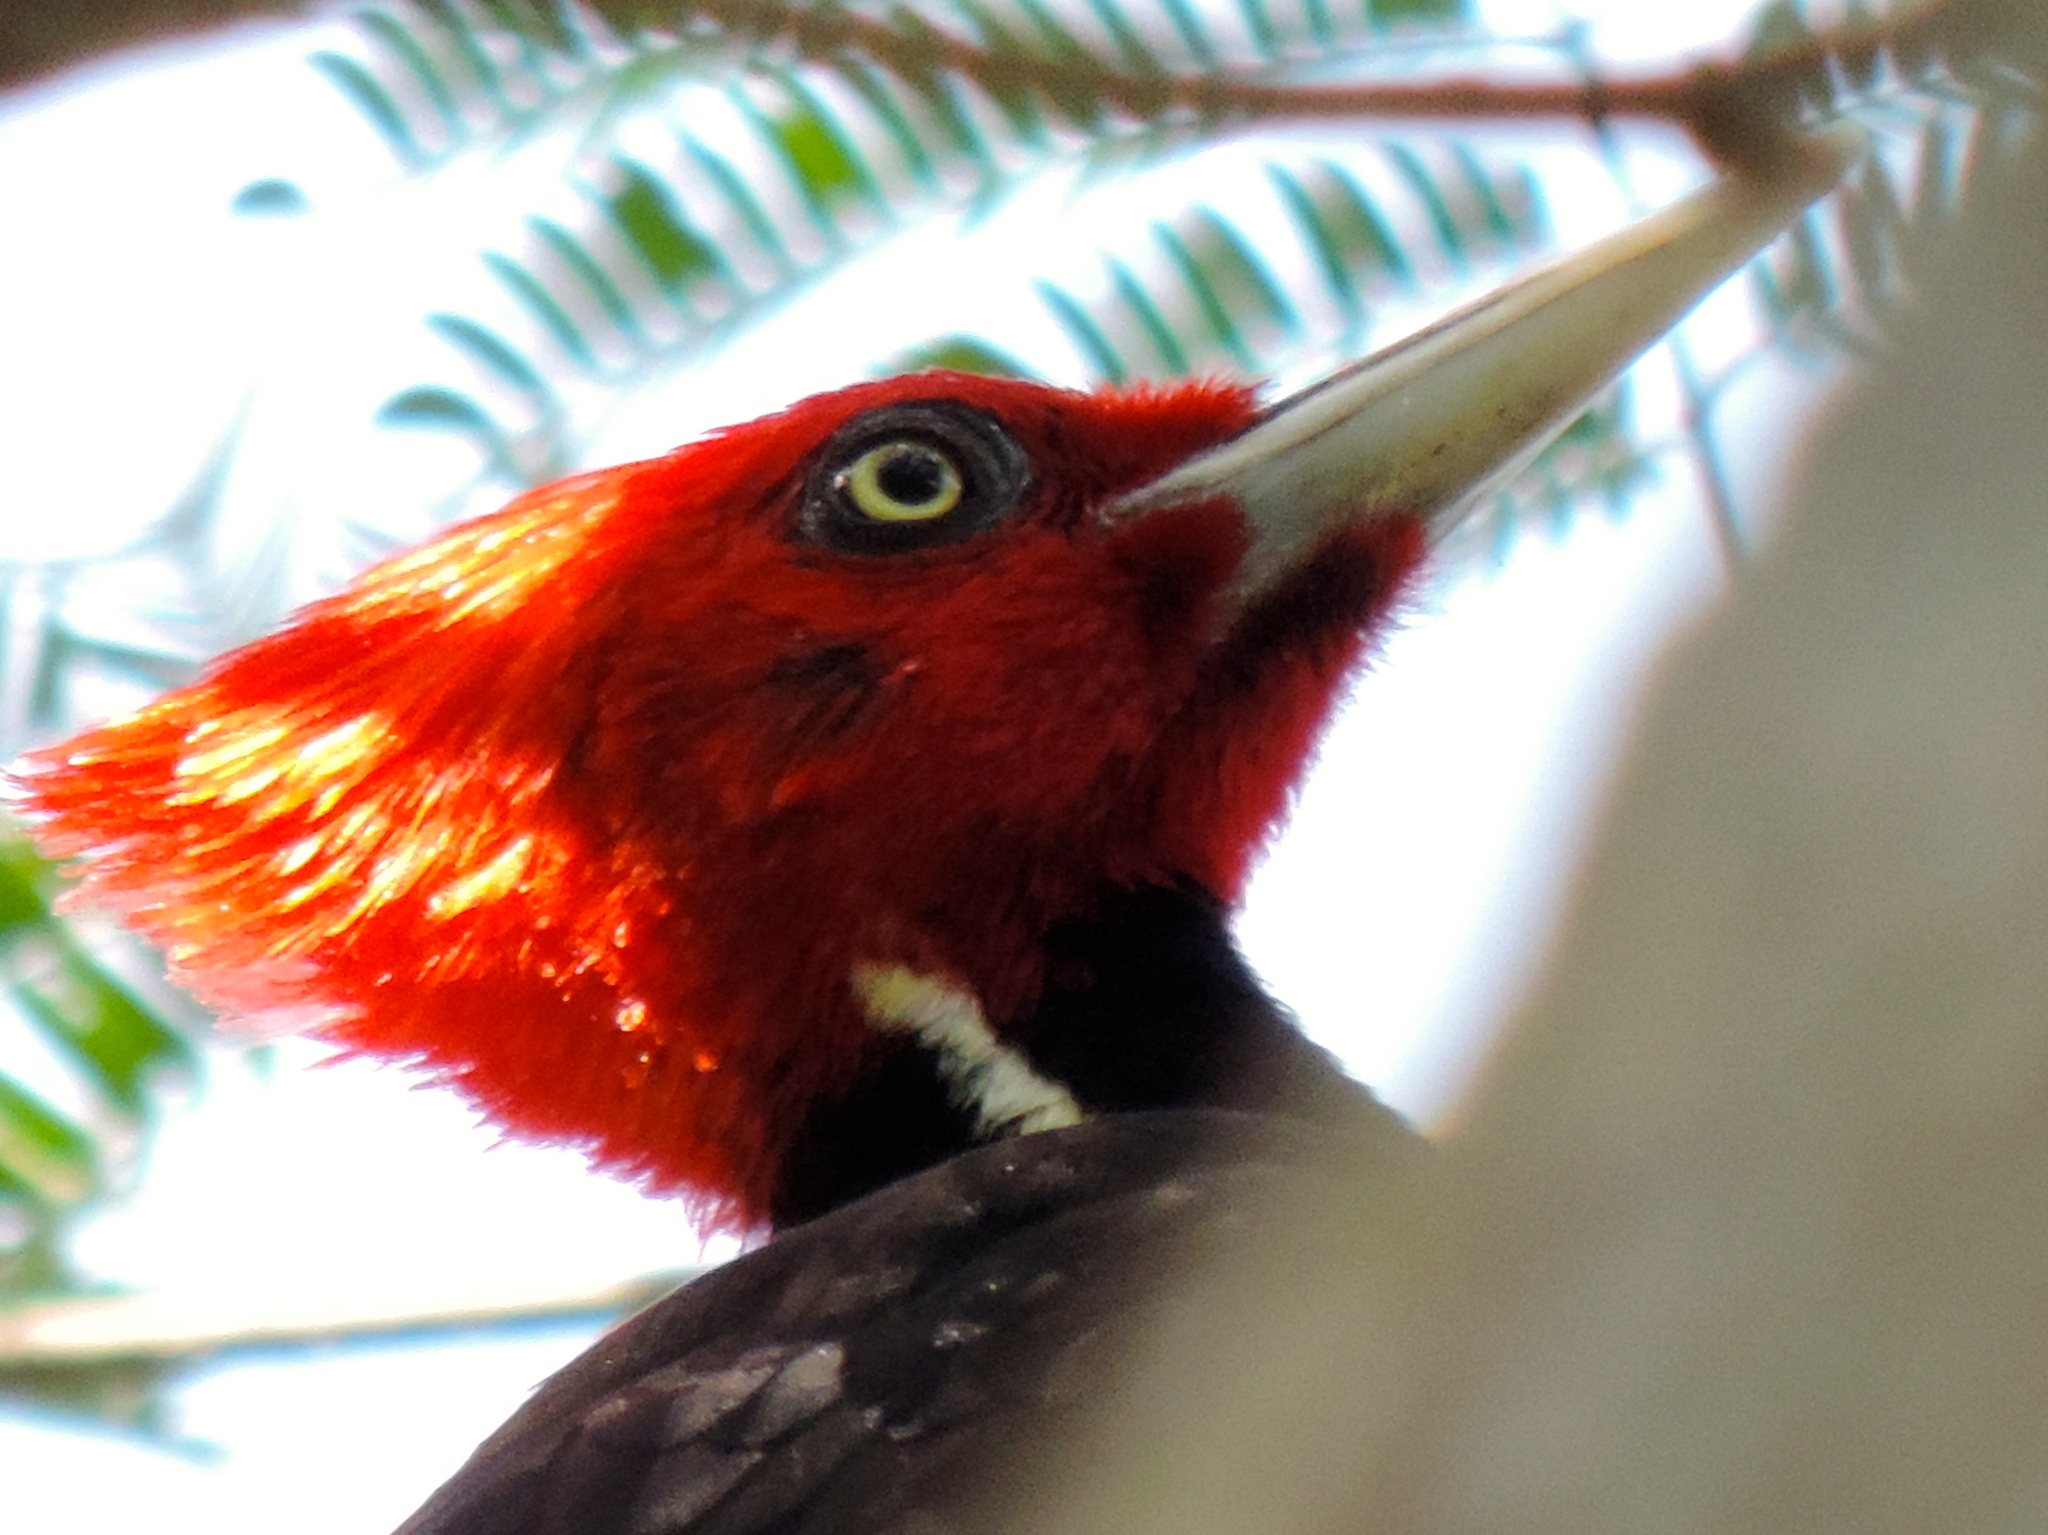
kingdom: Animalia
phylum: Chordata
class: Aves
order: Piciformes
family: Picidae
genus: Campephilus
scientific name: Campephilus guatemalensis
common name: Pale-billed woodpecker
